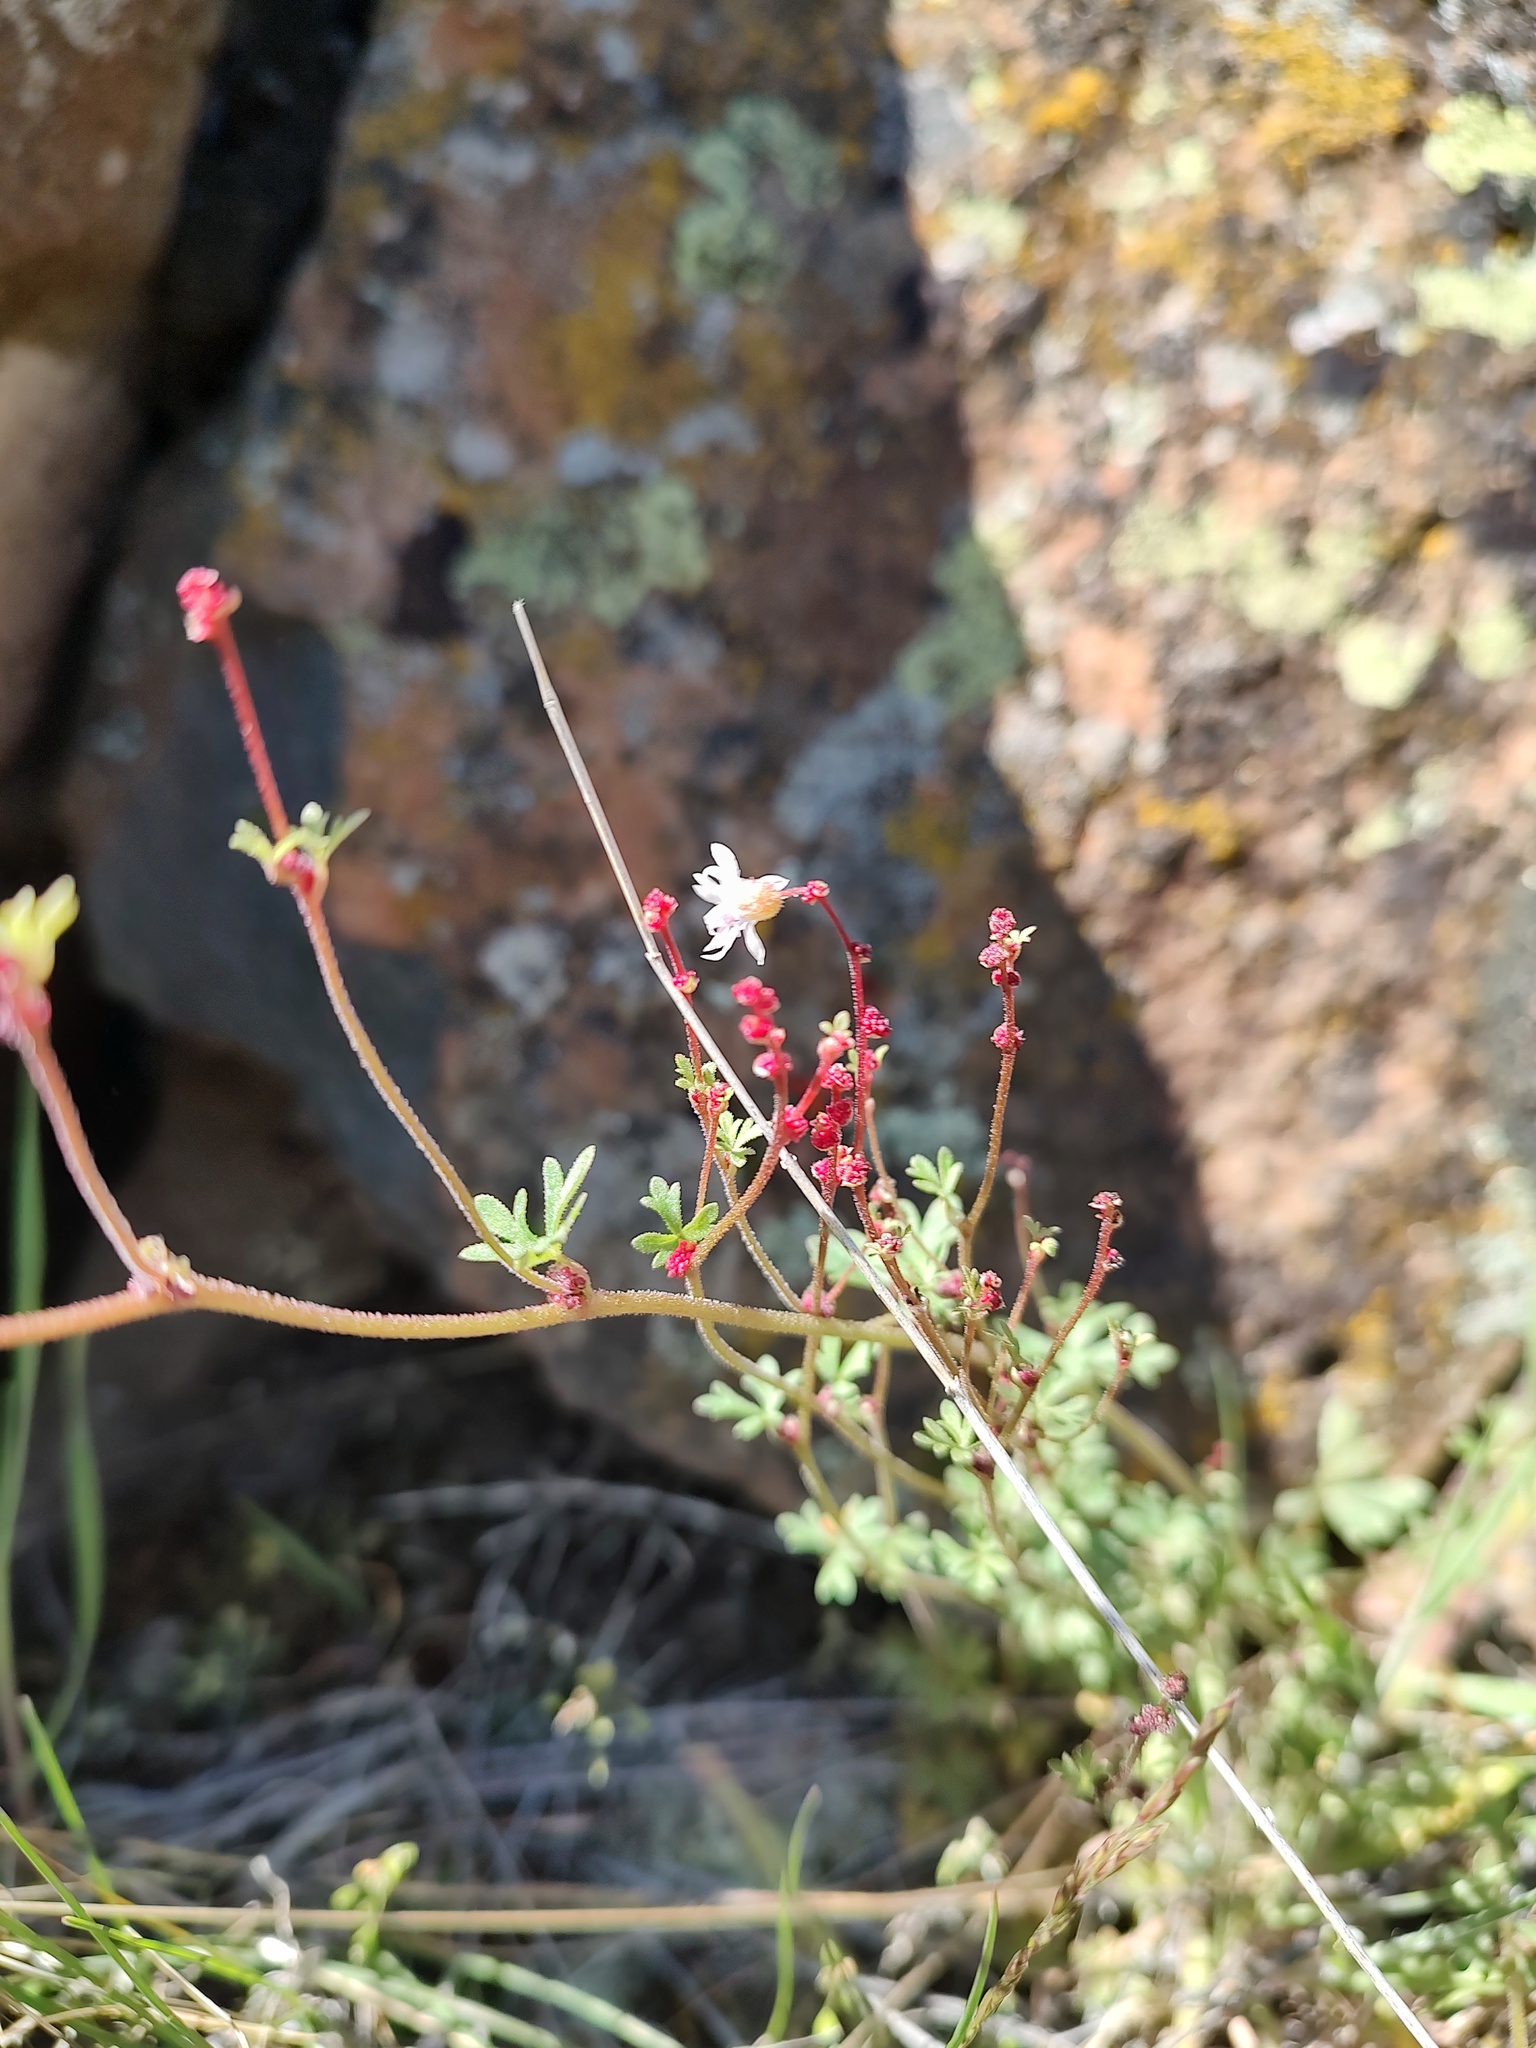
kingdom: Plantae
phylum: Tracheophyta
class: Magnoliopsida
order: Saxifragales
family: Saxifragaceae
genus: Lithophragma
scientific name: Lithophragma glabrum
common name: Bulbous prairie-star
